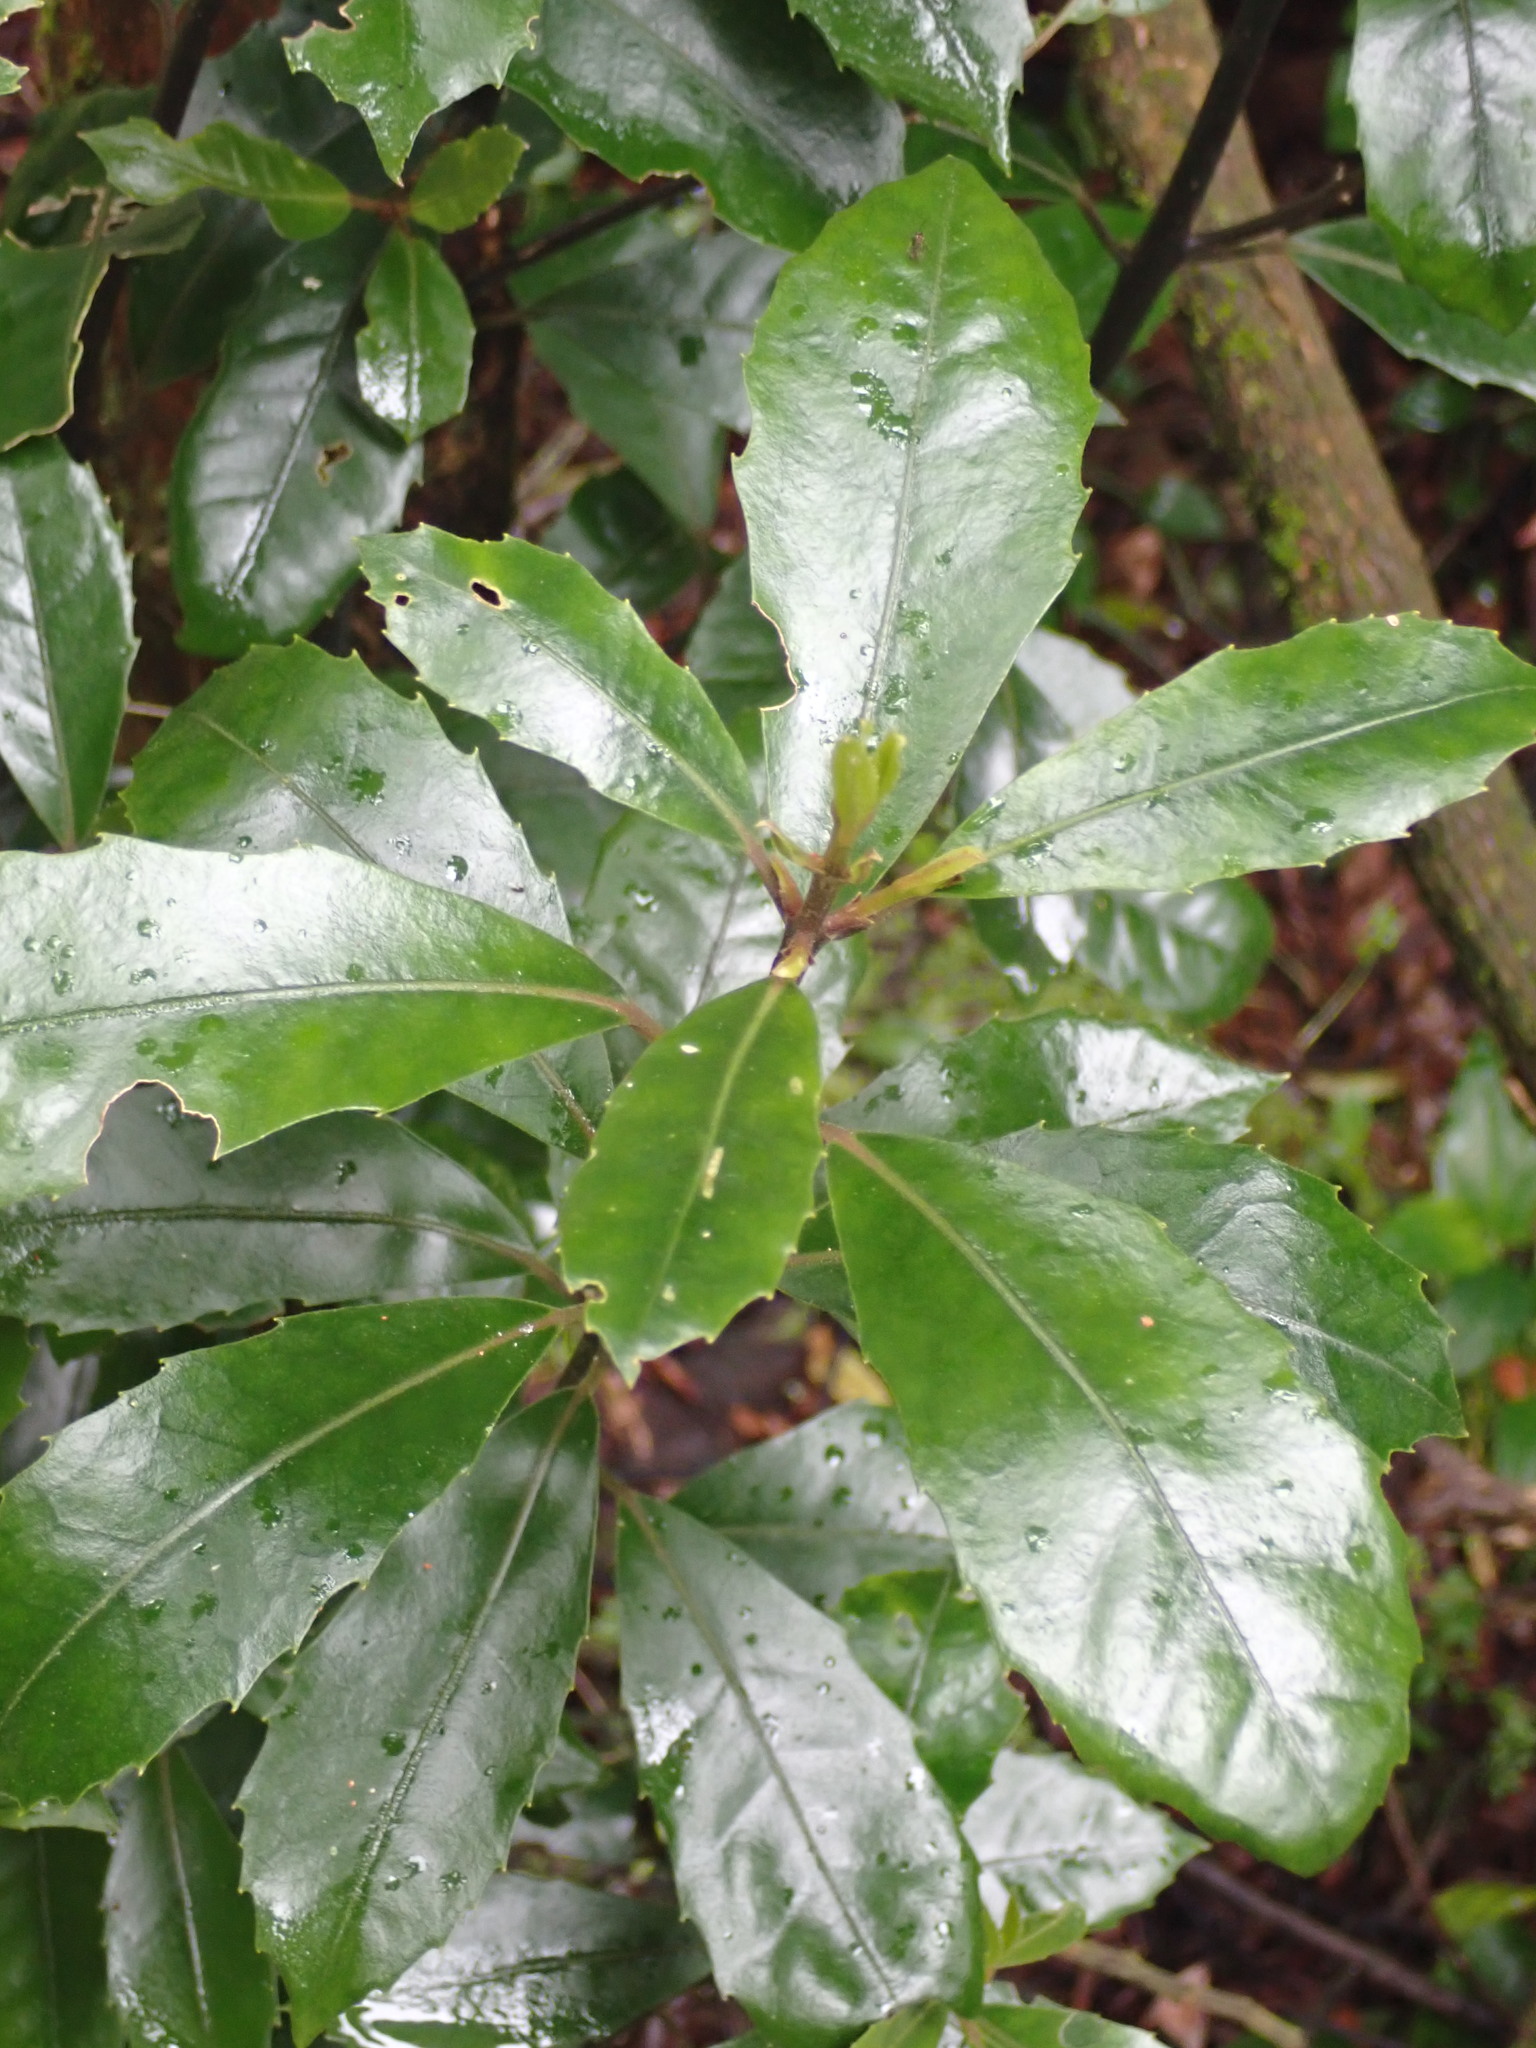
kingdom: Plantae
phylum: Tracheophyta
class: Magnoliopsida
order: Laurales
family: Monimiaceae
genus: Hedycarya
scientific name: Hedycarya arborea
